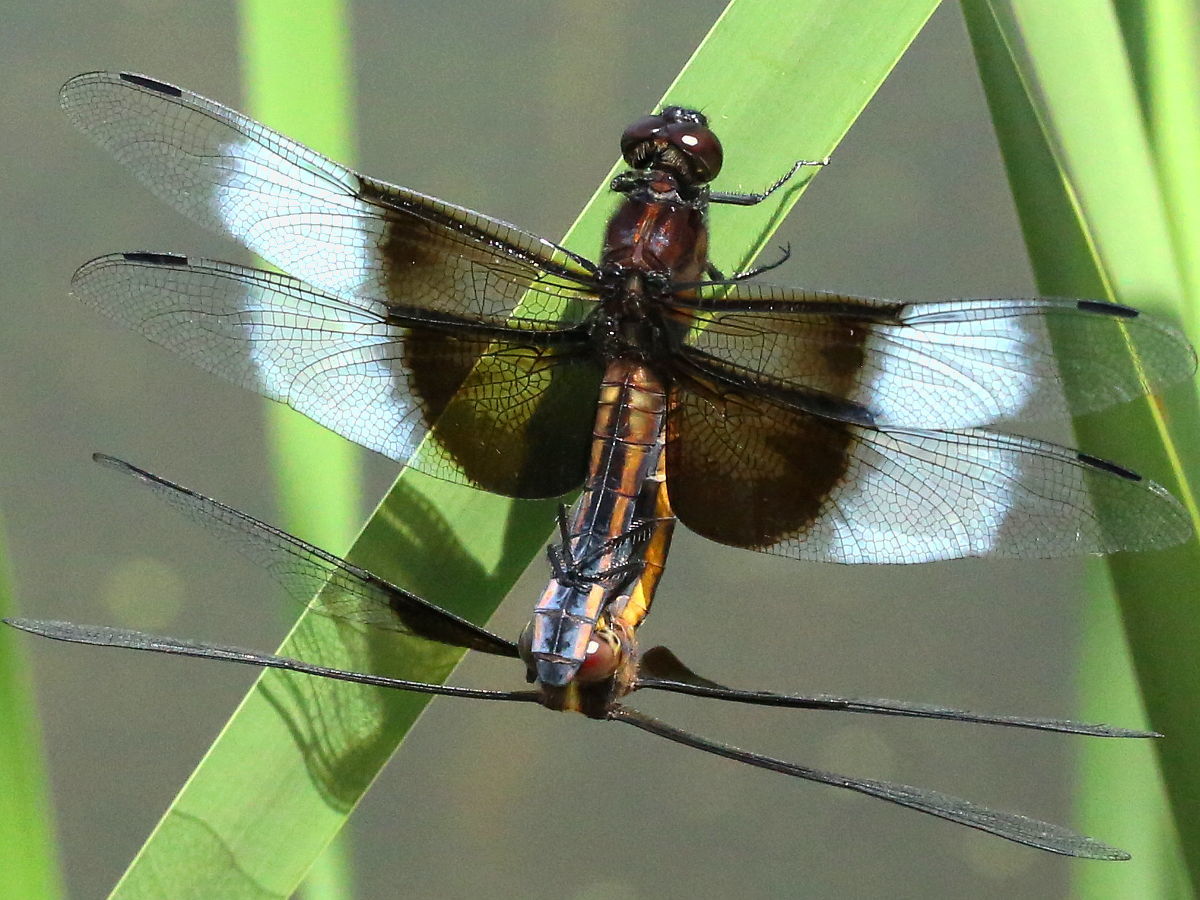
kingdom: Animalia
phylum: Arthropoda
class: Insecta
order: Odonata
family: Libellulidae
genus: Libellula
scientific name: Libellula luctuosa
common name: Widow skimmer
